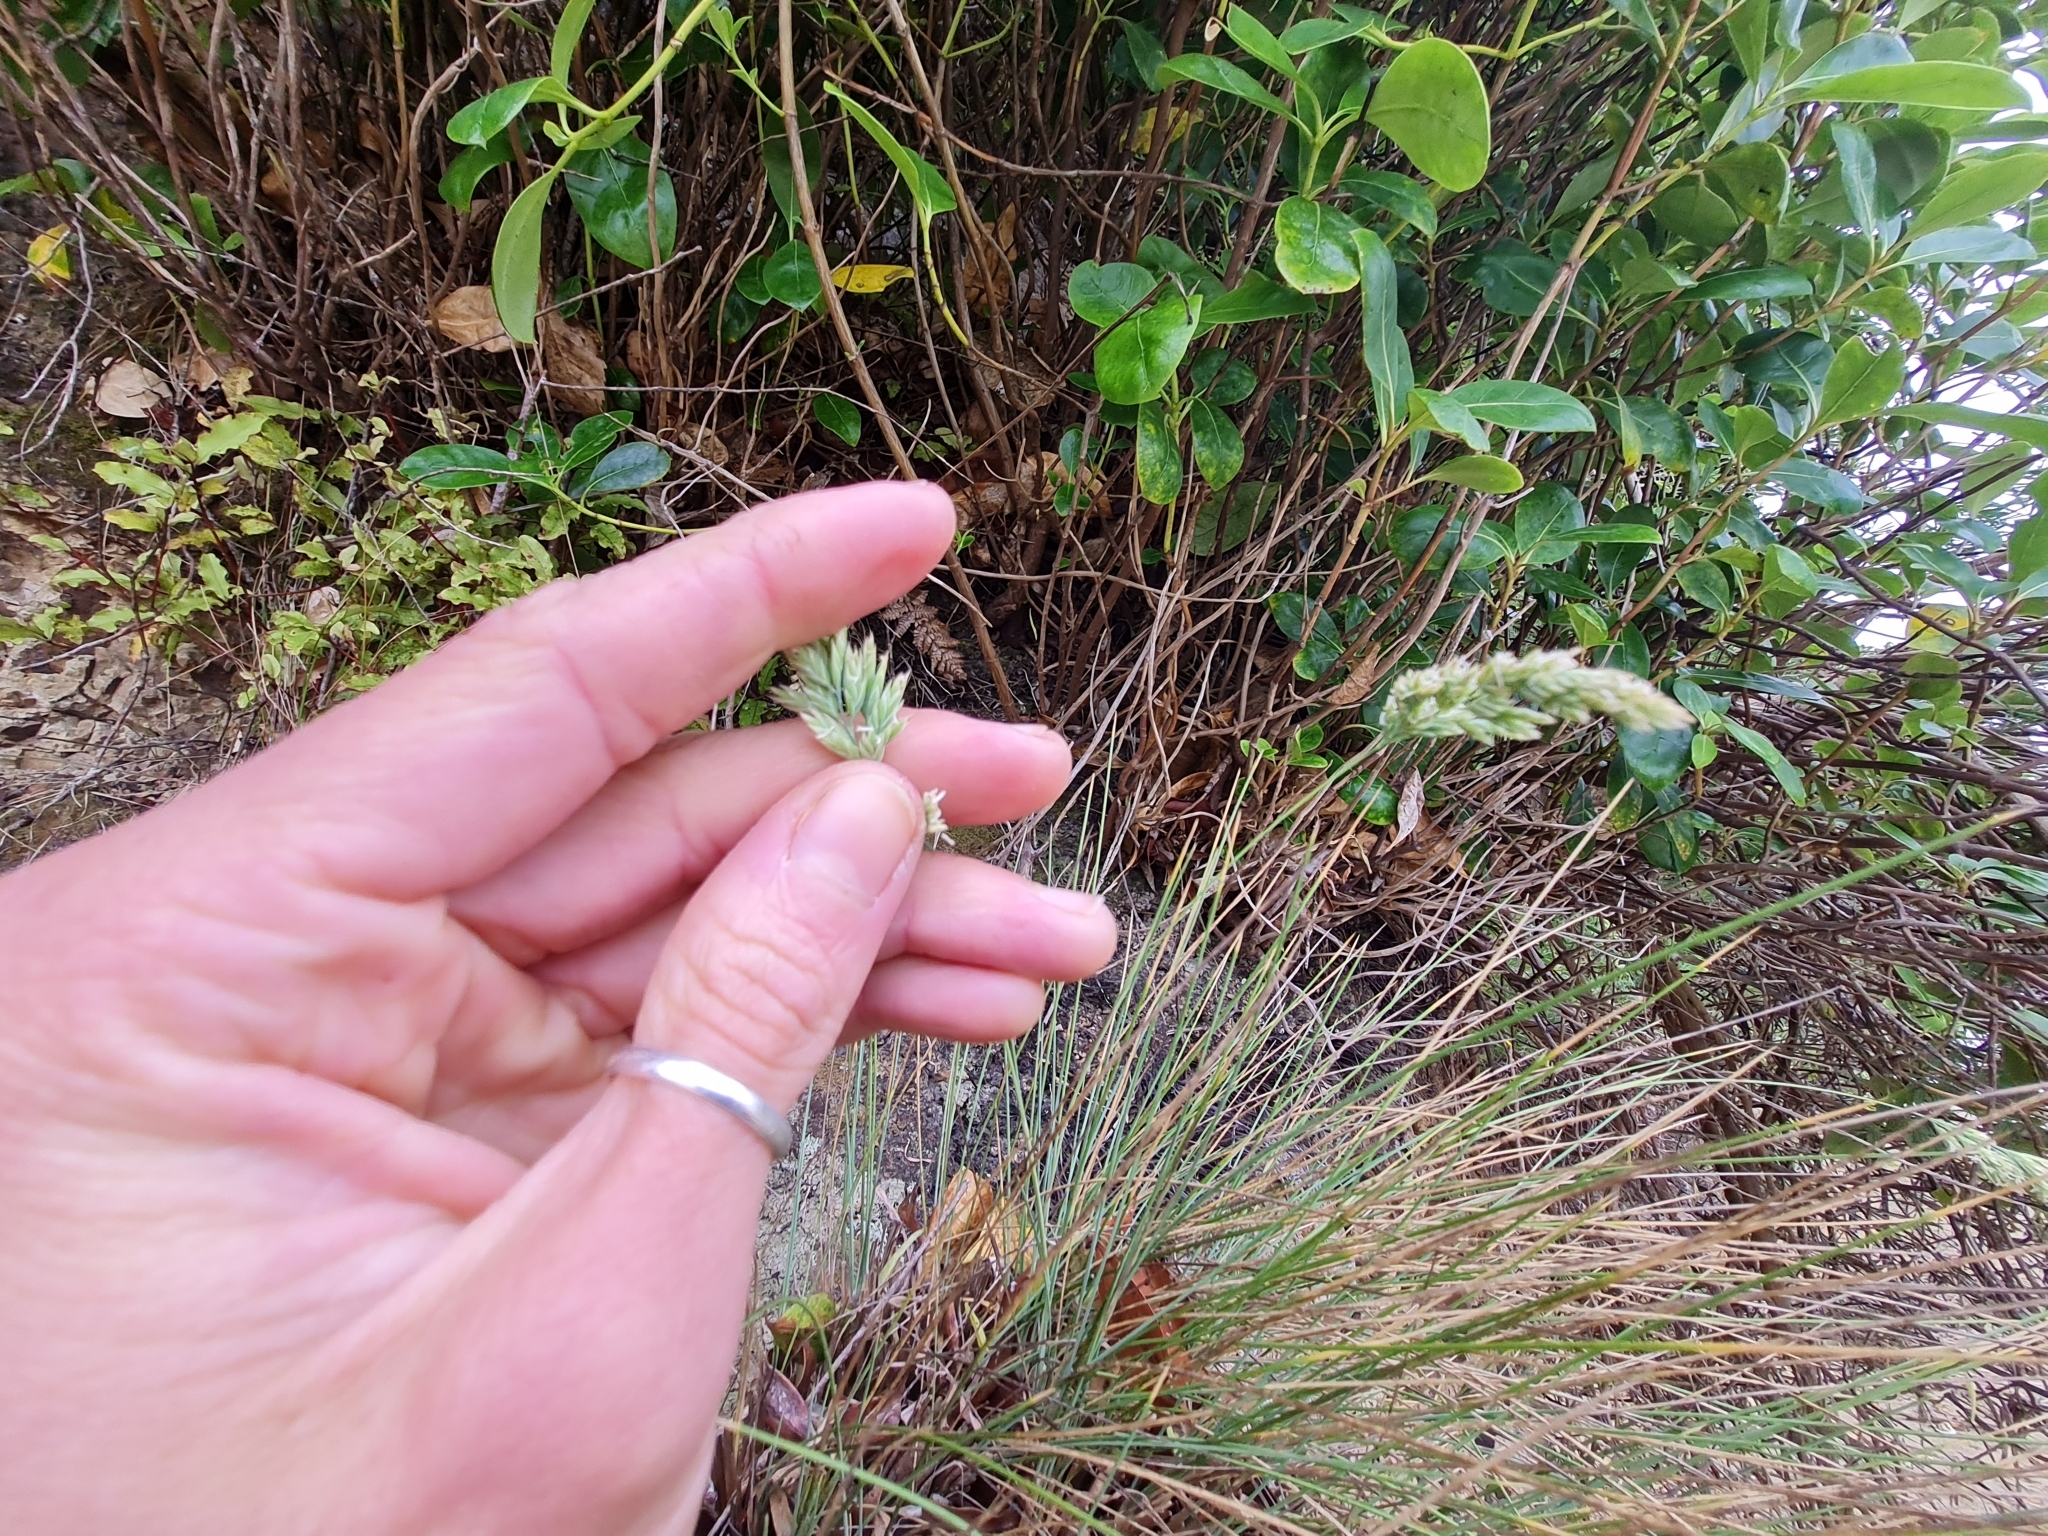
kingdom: Plantae
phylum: Tracheophyta
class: Liliopsida
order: Poales
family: Poaceae
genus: Poa
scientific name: Poa astonii
